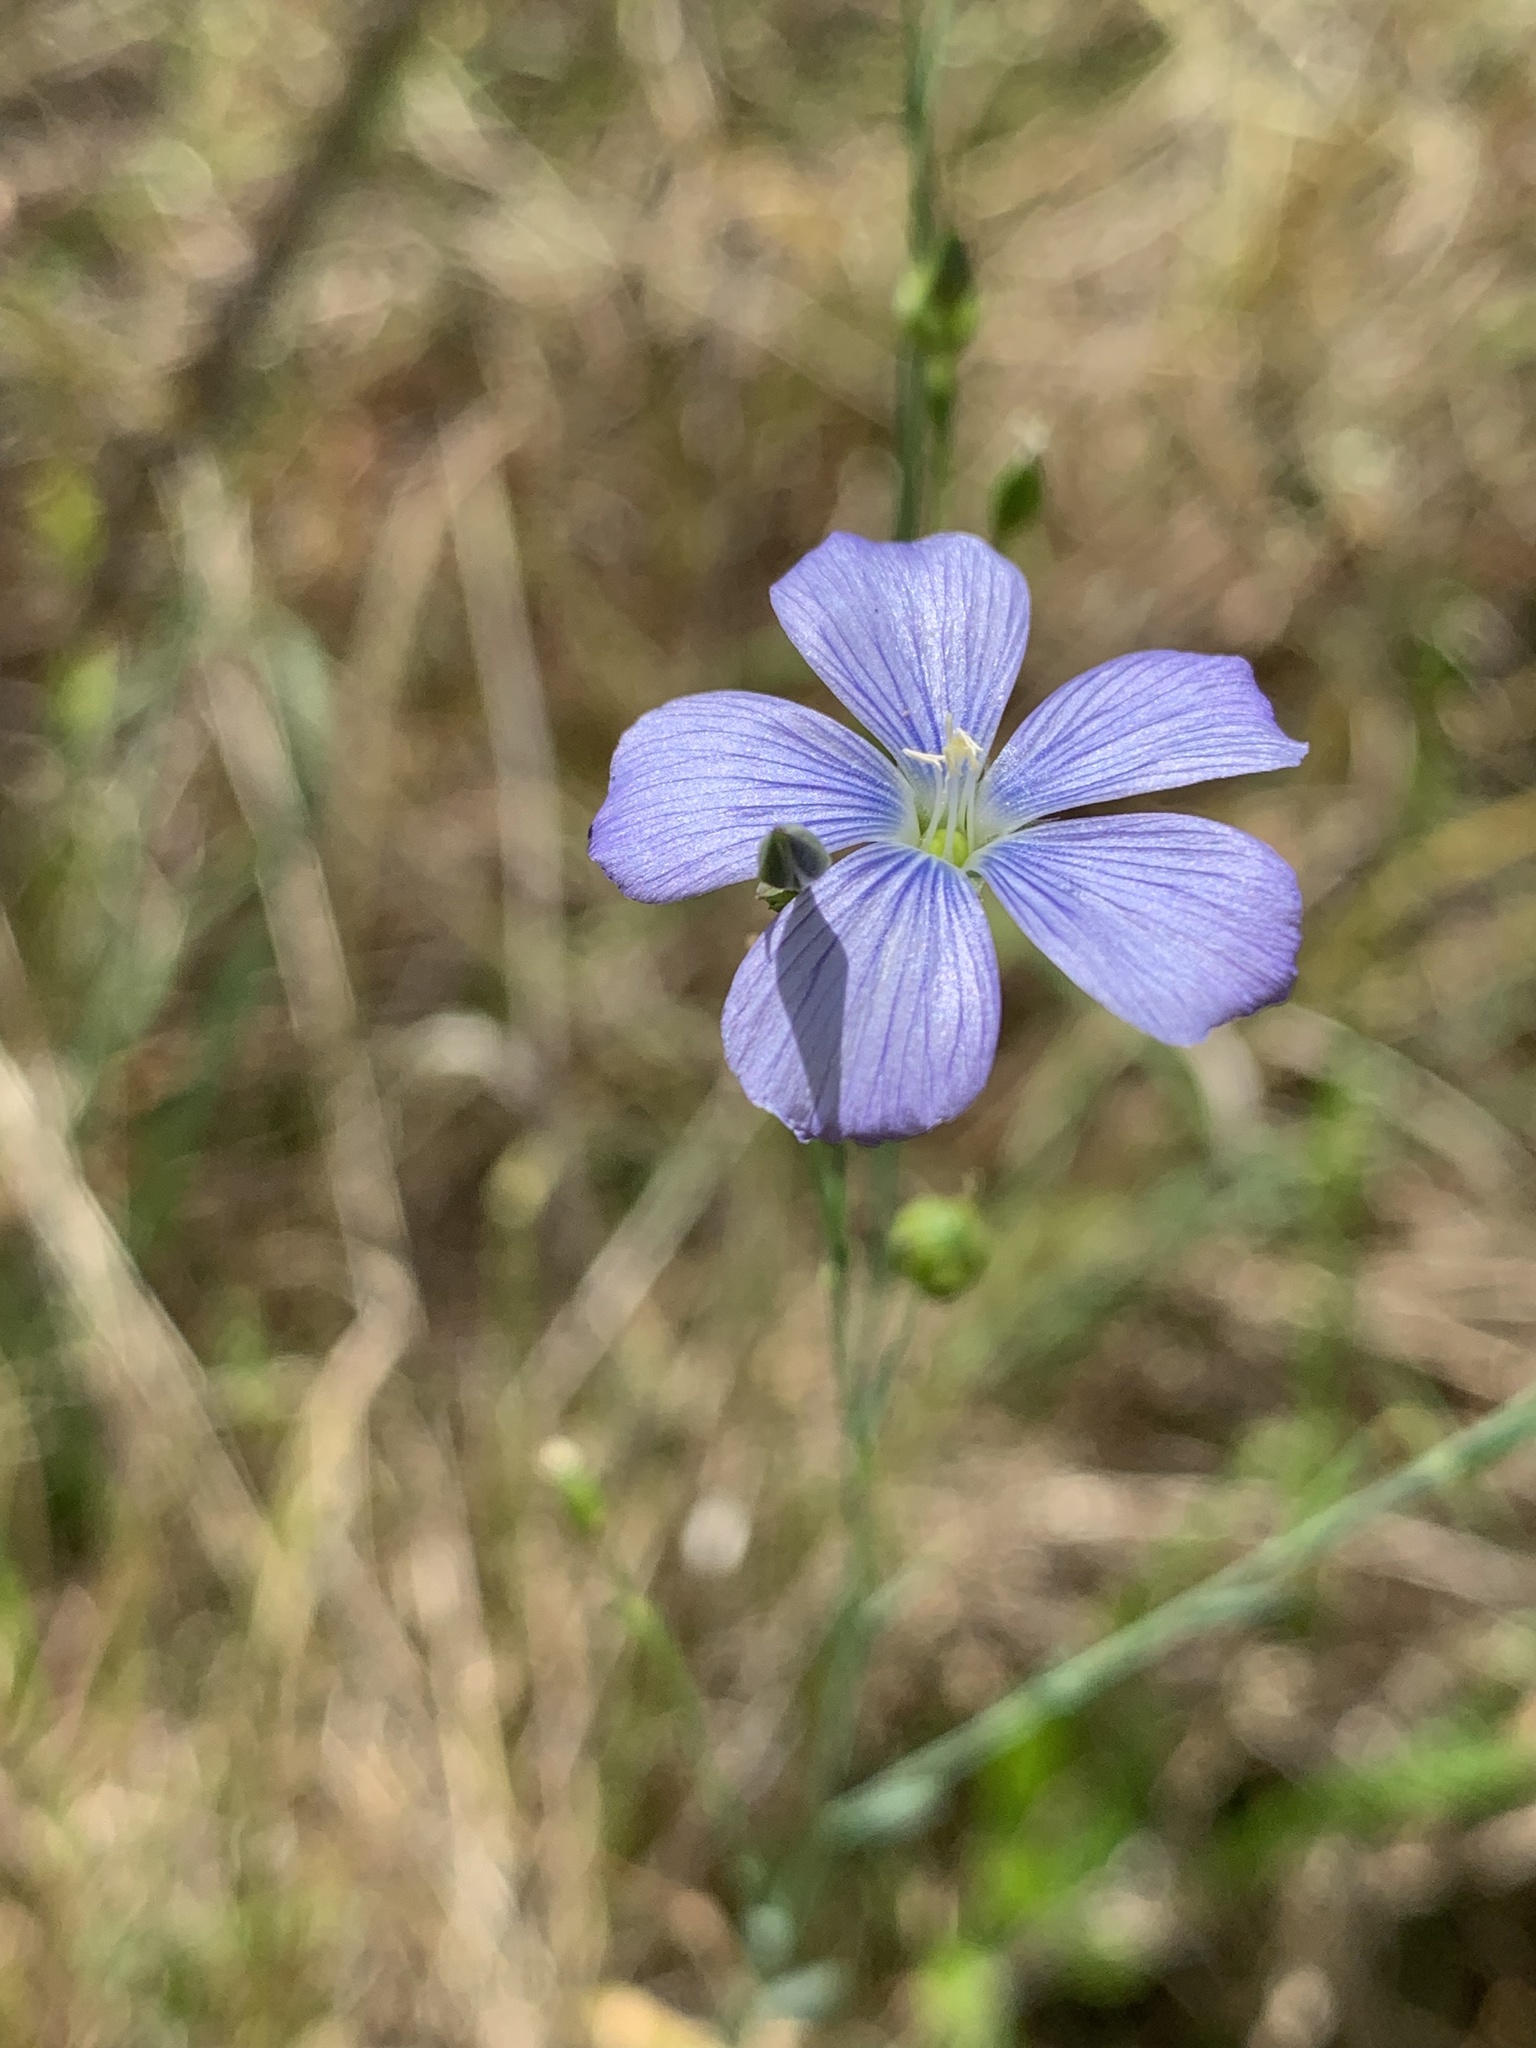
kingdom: Plantae
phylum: Tracheophyta
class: Magnoliopsida
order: Malpighiales
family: Linaceae
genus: Linum
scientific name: Linum marginale
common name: Wild flax
